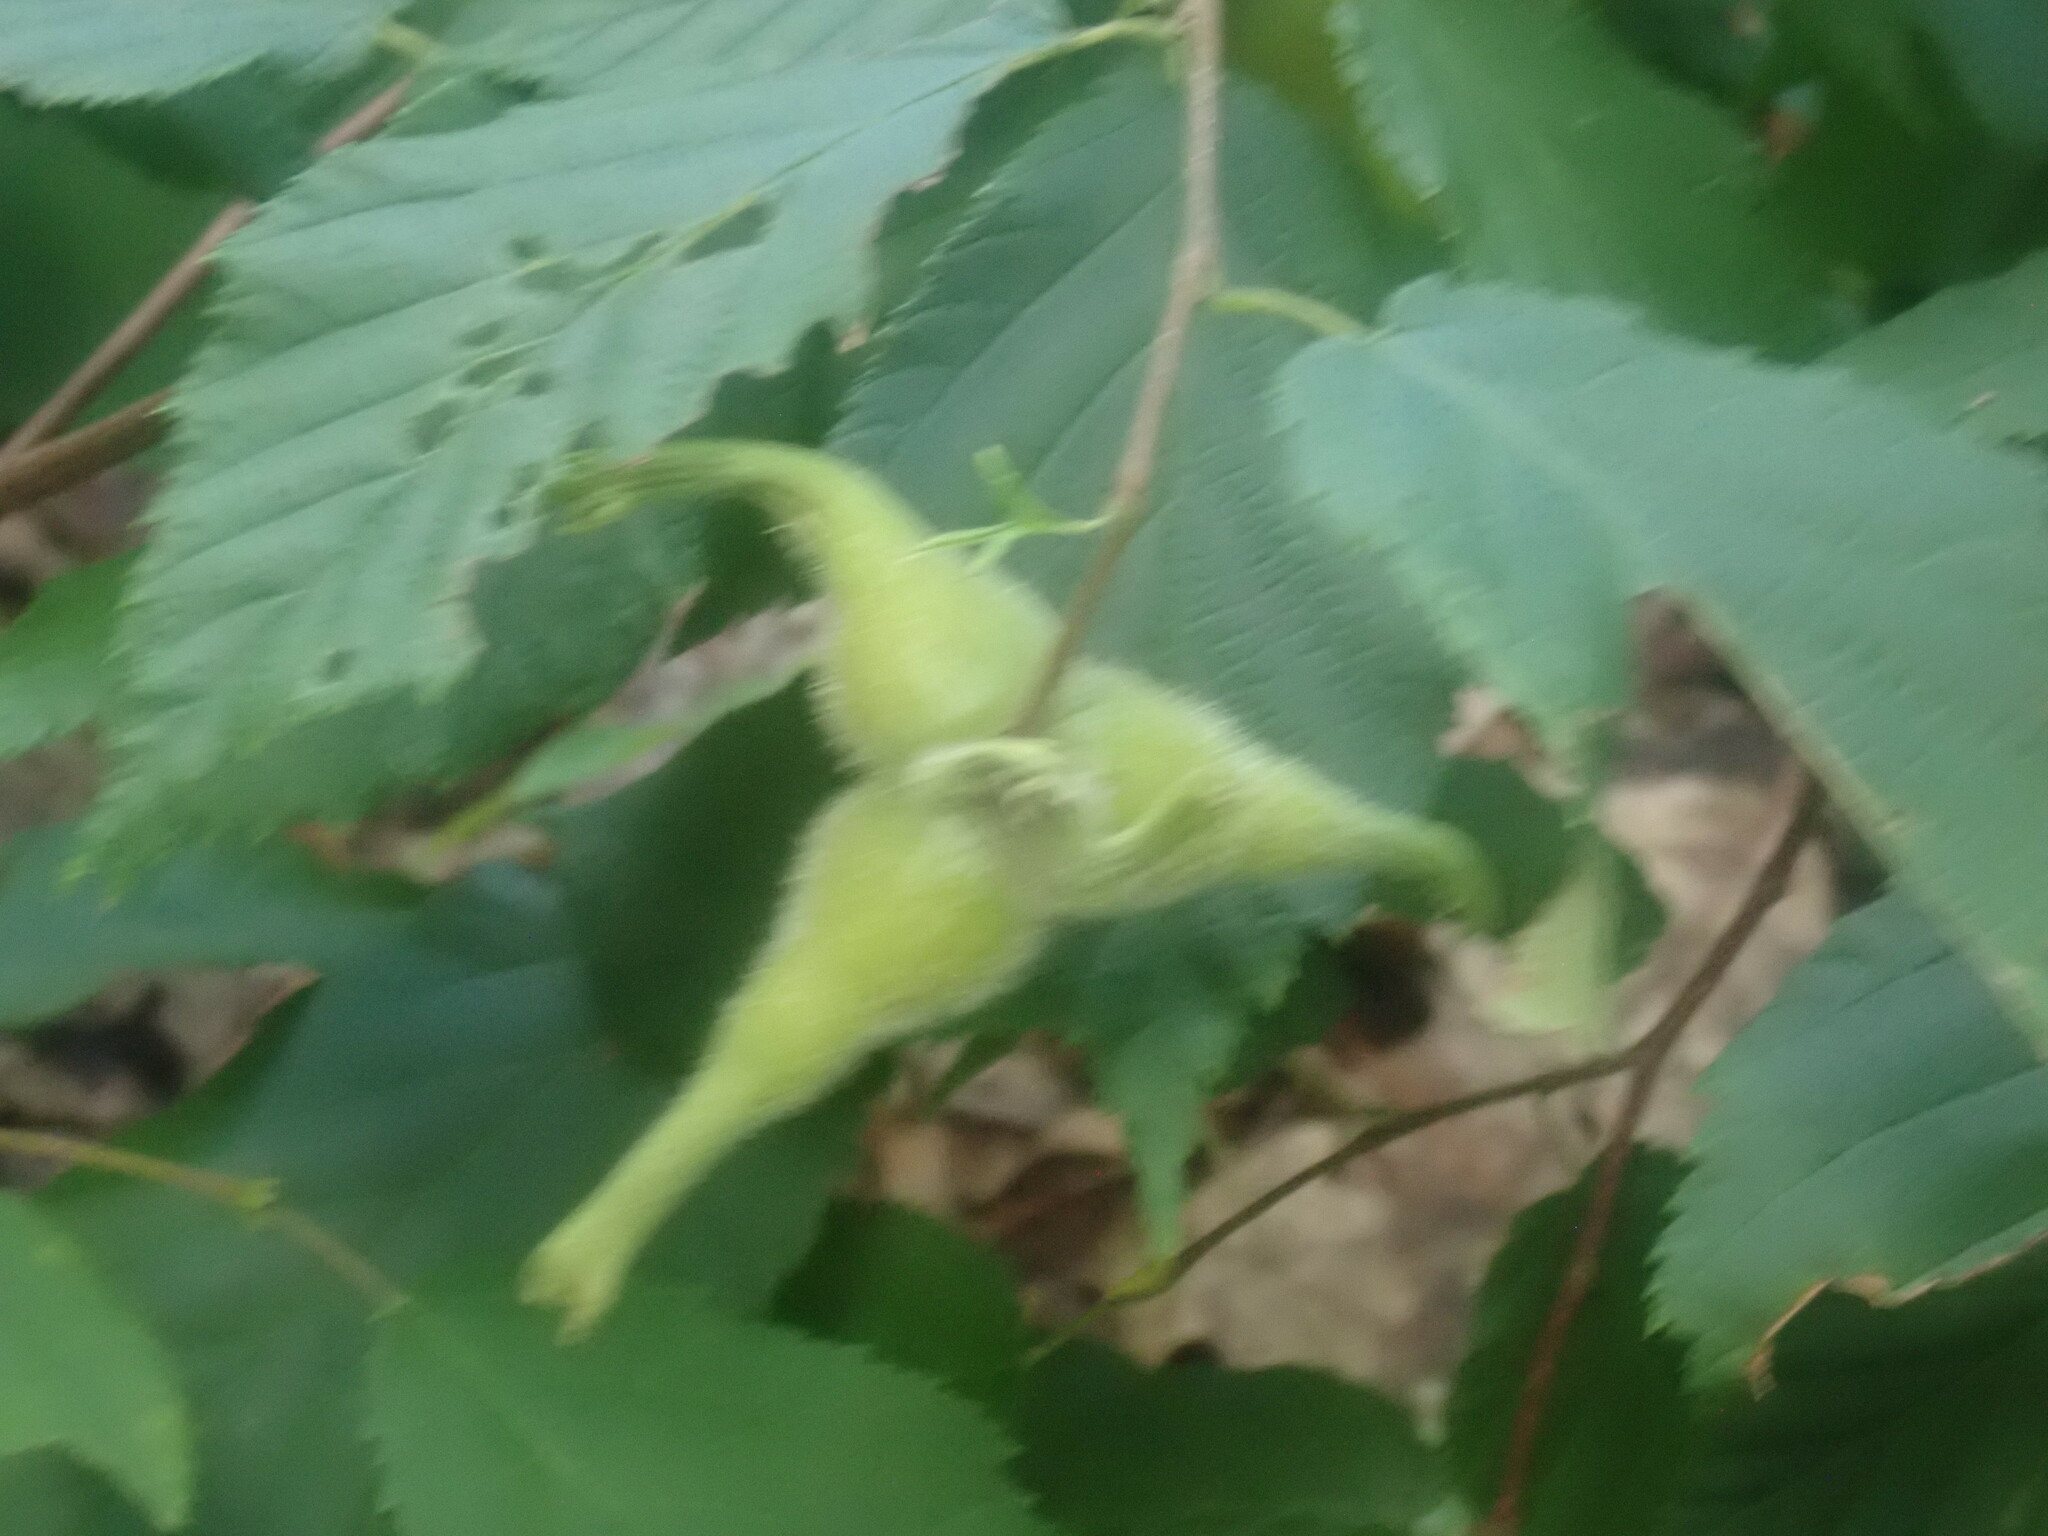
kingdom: Plantae
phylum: Tracheophyta
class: Magnoliopsida
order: Fagales
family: Betulaceae
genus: Corylus
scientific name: Corylus cornuta
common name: Beaked hazel
